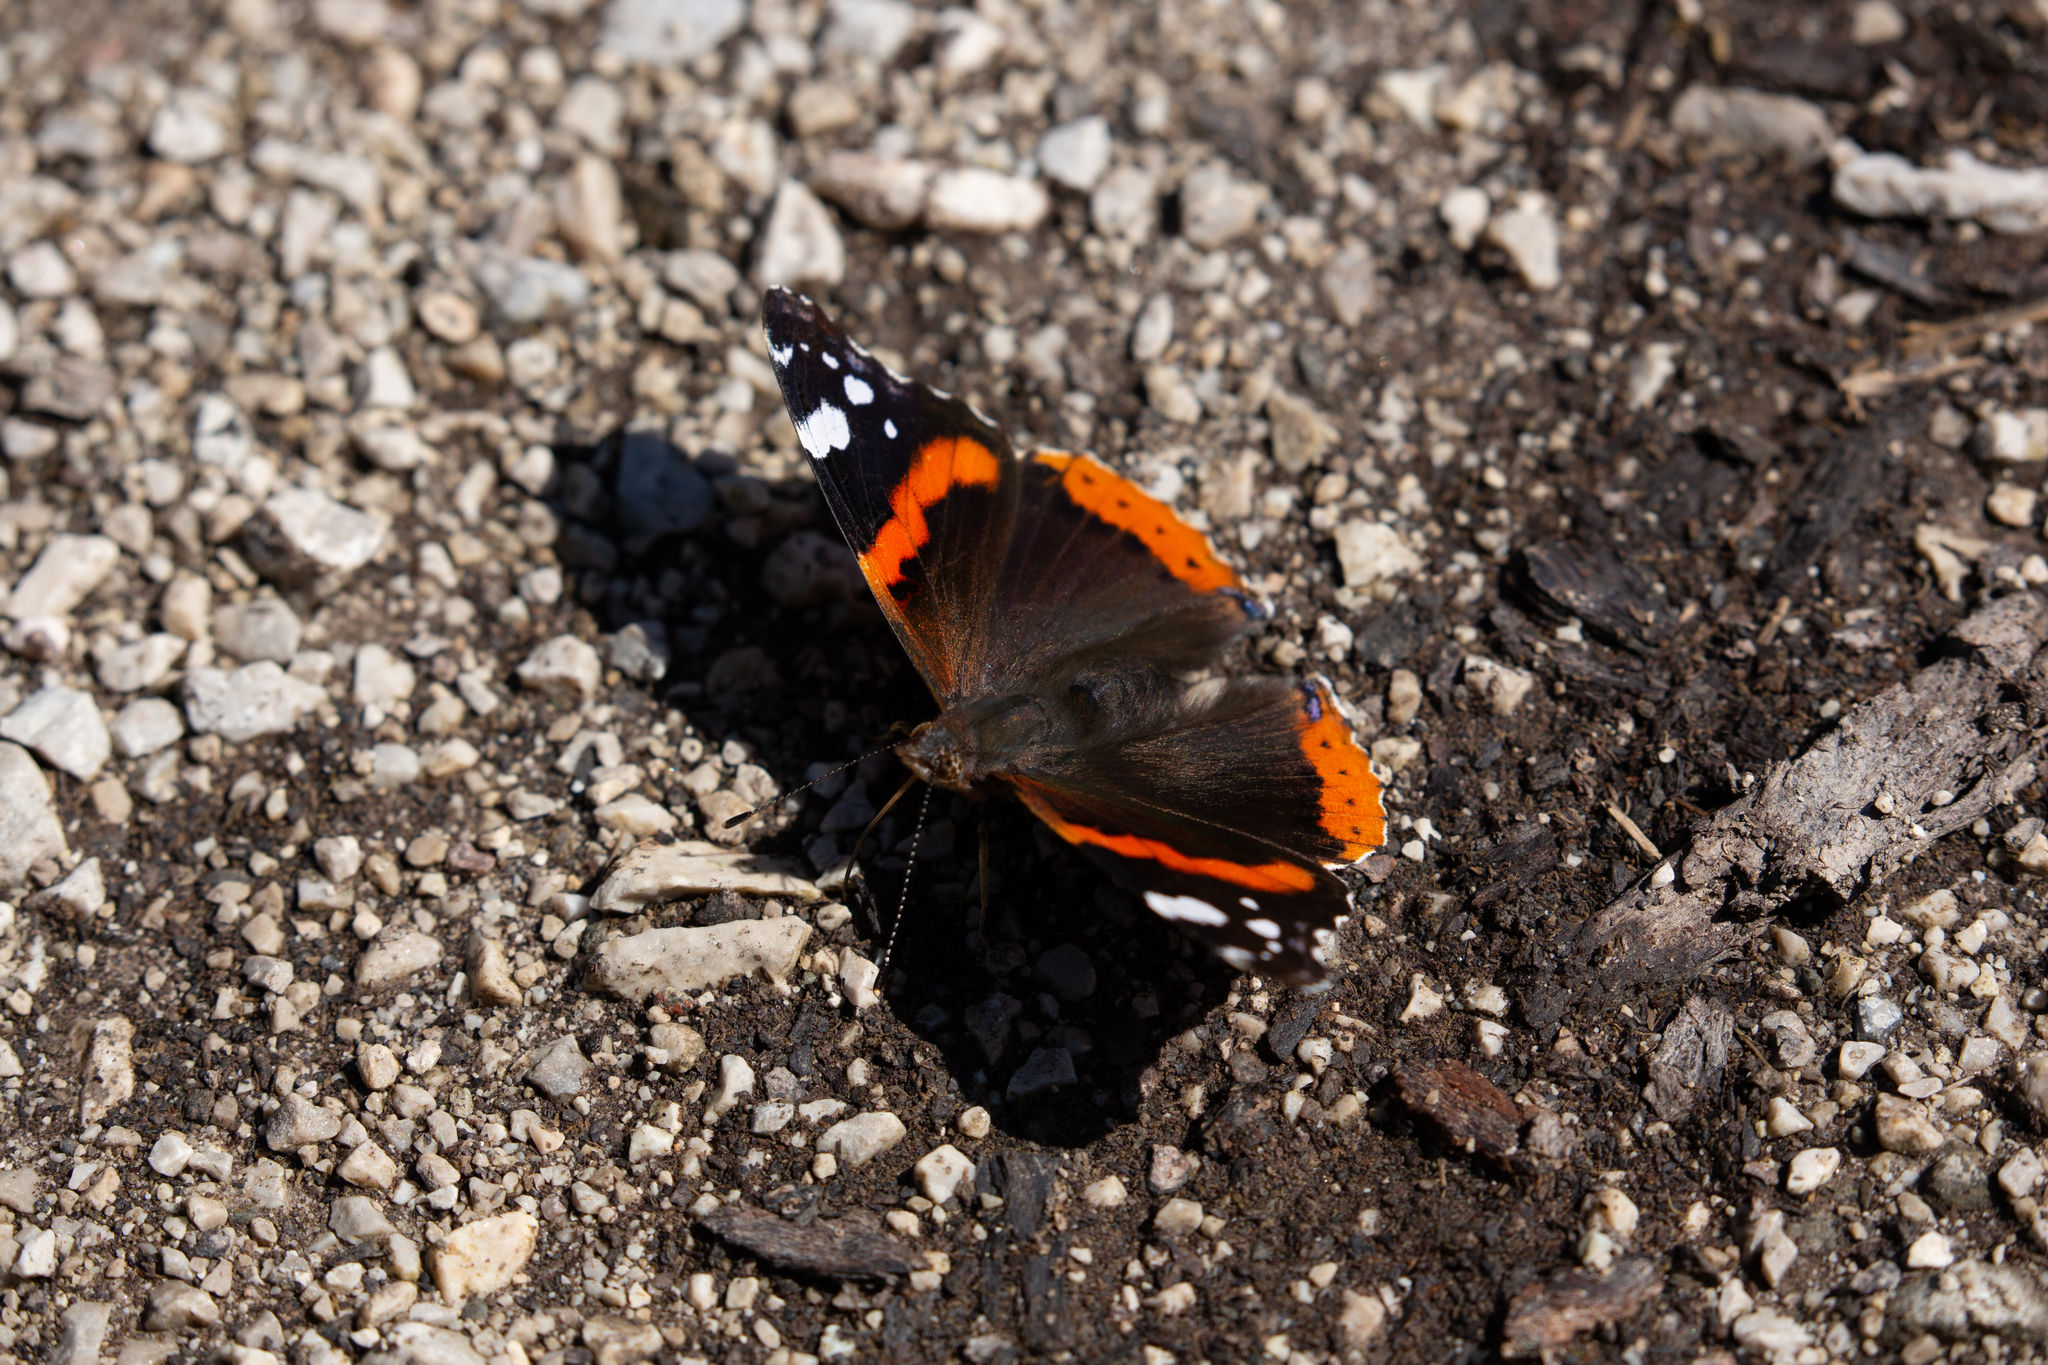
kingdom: Animalia
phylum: Arthropoda
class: Insecta
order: Lepidoptera
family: Nymphalidae
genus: Vanessa
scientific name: Vanessa atalanta
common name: Red admiral
